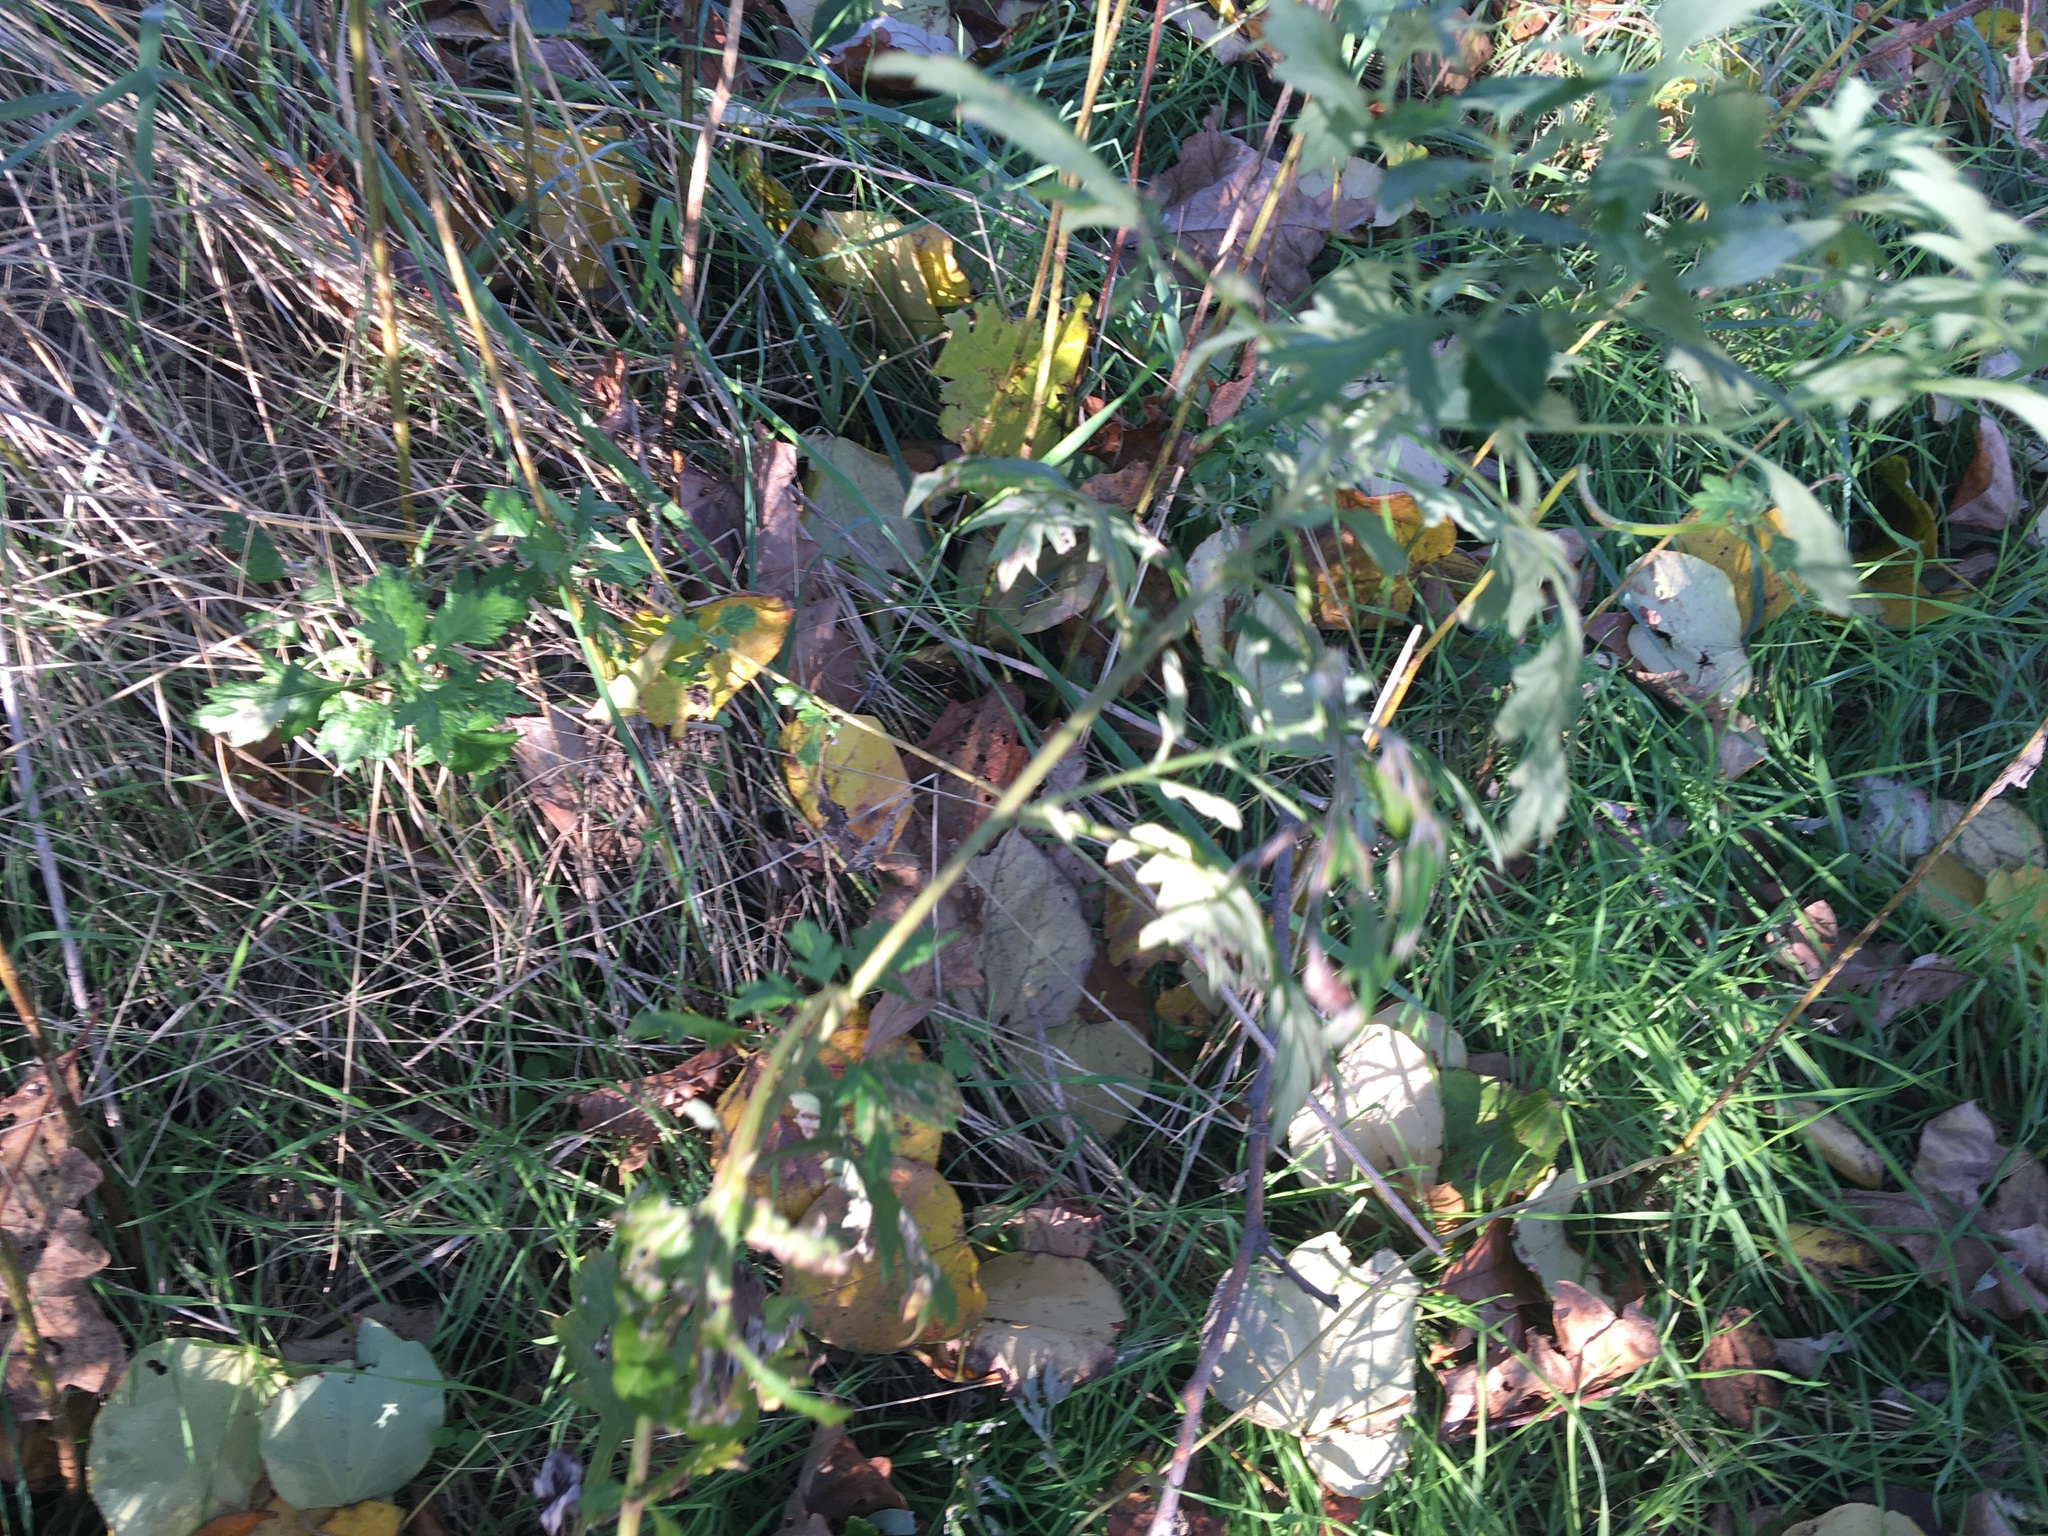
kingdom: Plantae
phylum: Tracheophyta
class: Magnoliopsida
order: Asterales
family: Asteraceae
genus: Artemisia
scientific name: Artemisia vulgaris
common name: Mugwort
